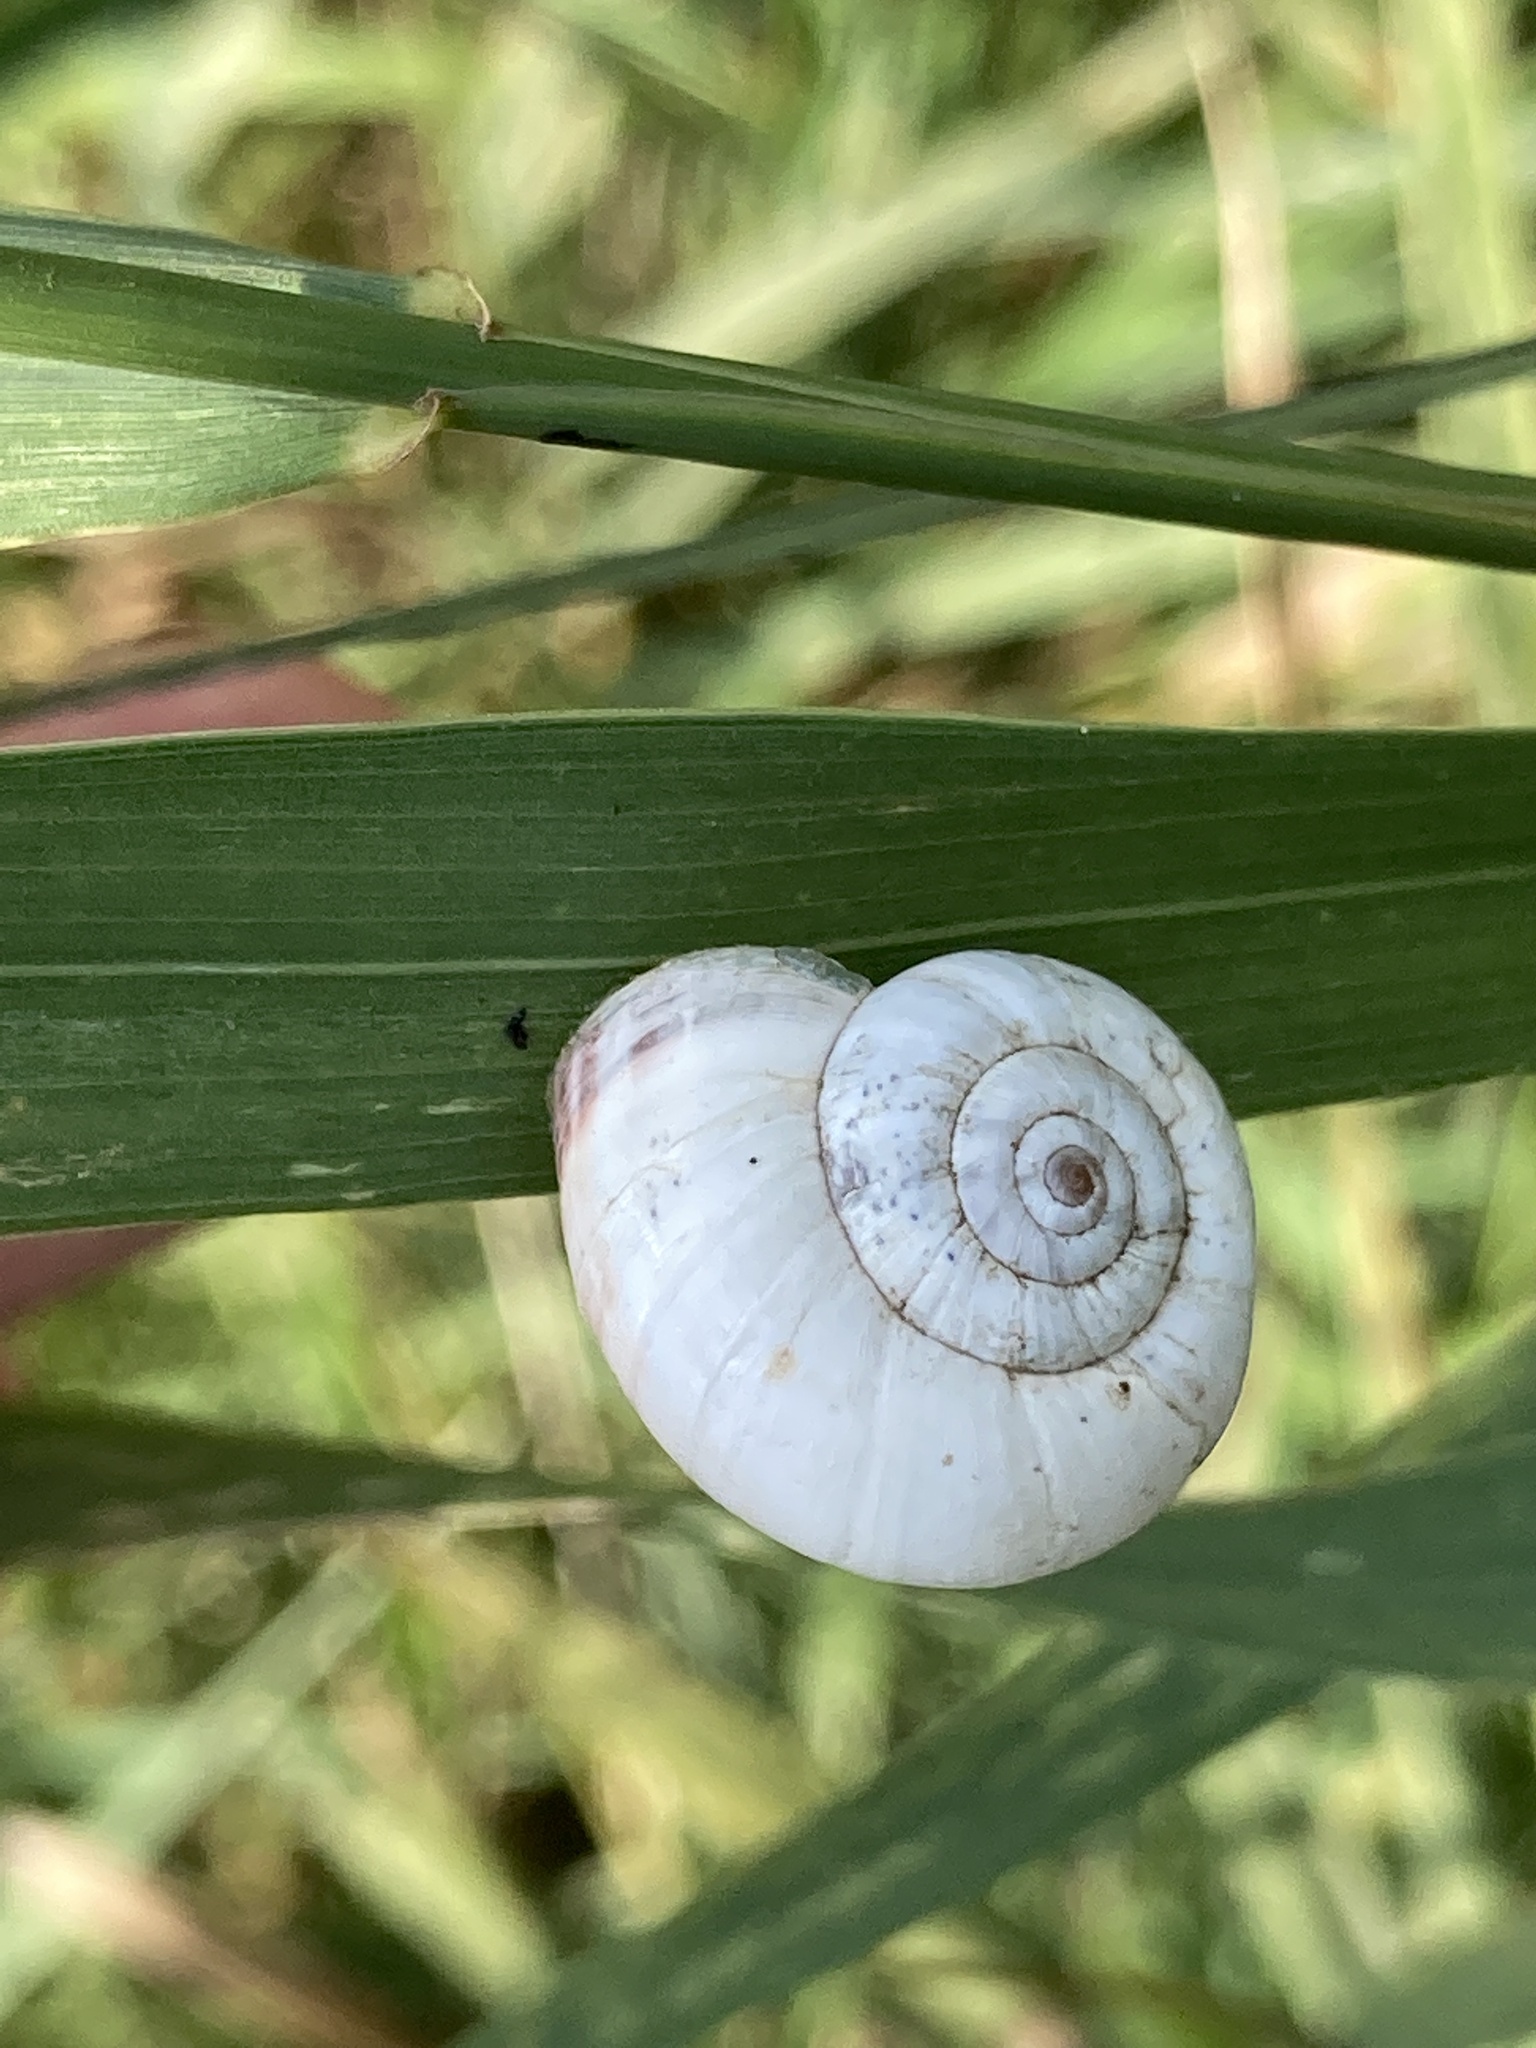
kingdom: Animalia
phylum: Mollusca
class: Gastropoda
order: Stylommatophora
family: Geomitridae
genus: Xeropicta
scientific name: Xeropicta derbentina
